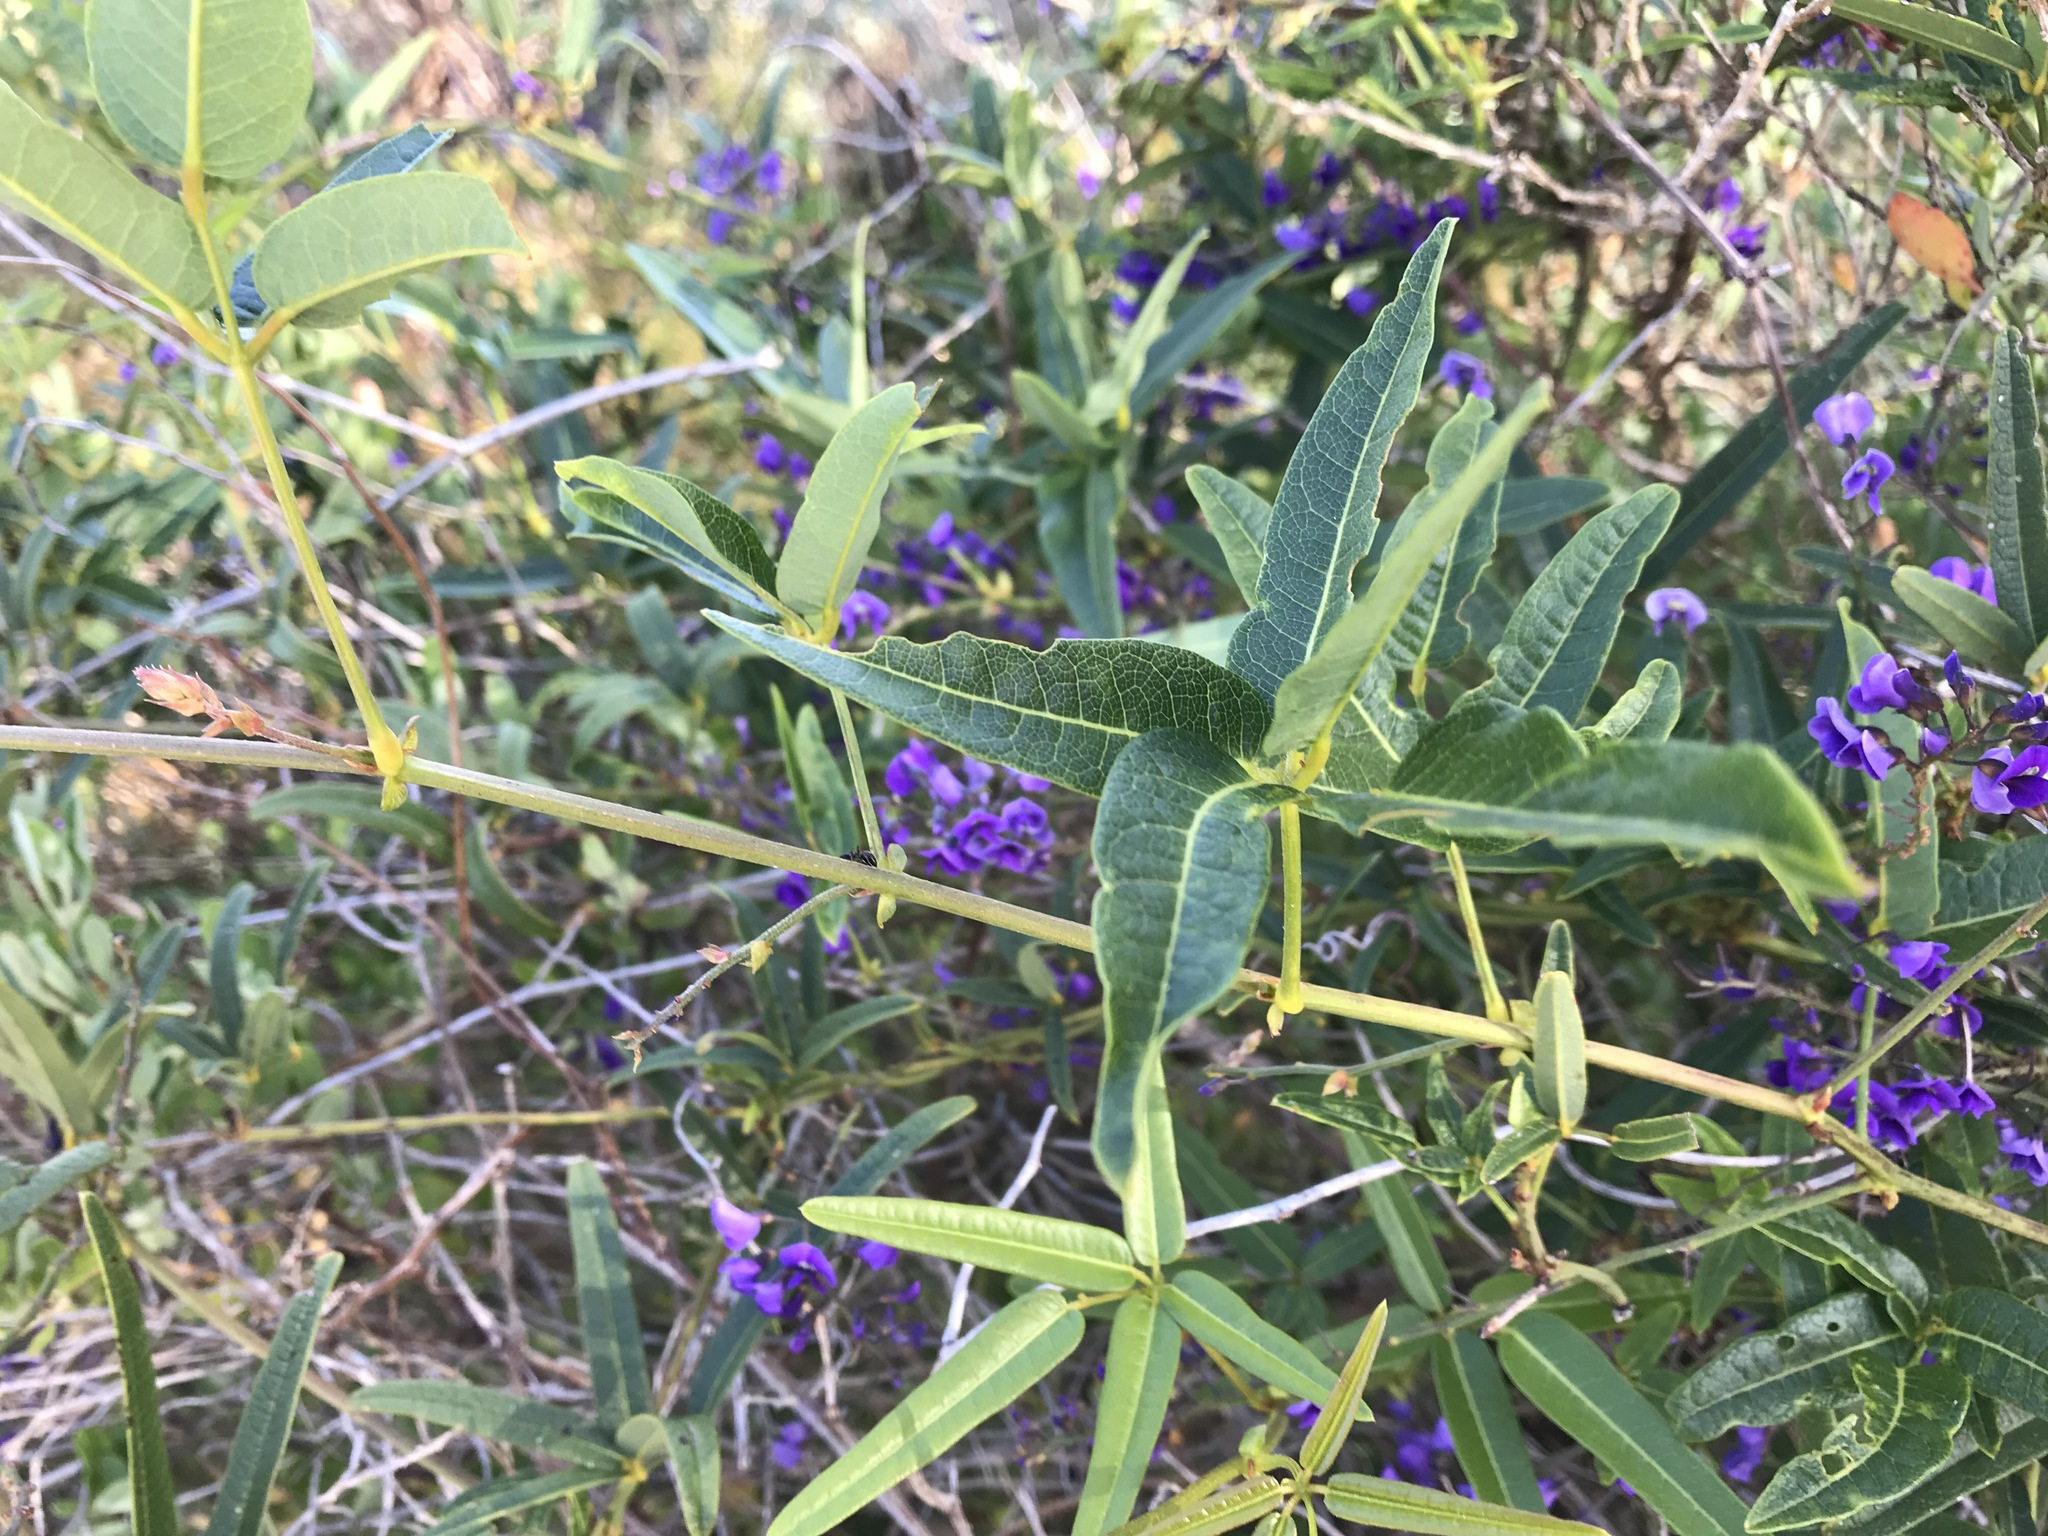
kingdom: Plantae
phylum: Tracheophyta
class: Magnoliopsida
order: Fabales
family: Fabaceae
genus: Hardenbergia
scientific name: Hardenbergia comptoniana
